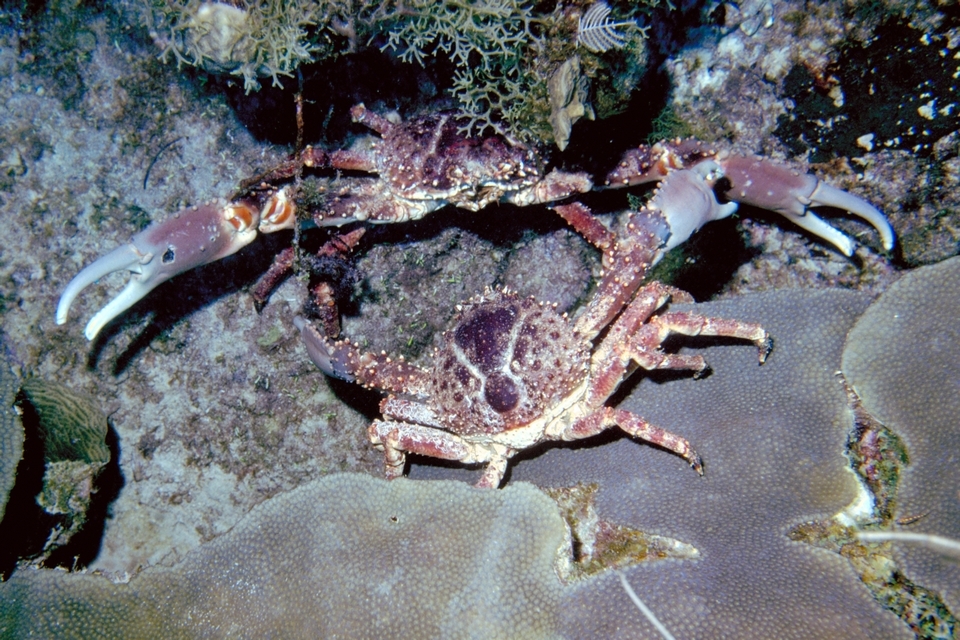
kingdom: Animalia
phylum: Arthropoda
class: Malacostraca
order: Decapoda
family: Mithracidae
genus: Maguimithrax
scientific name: Maguimithrax spinosissimus
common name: Spiny spider crab
